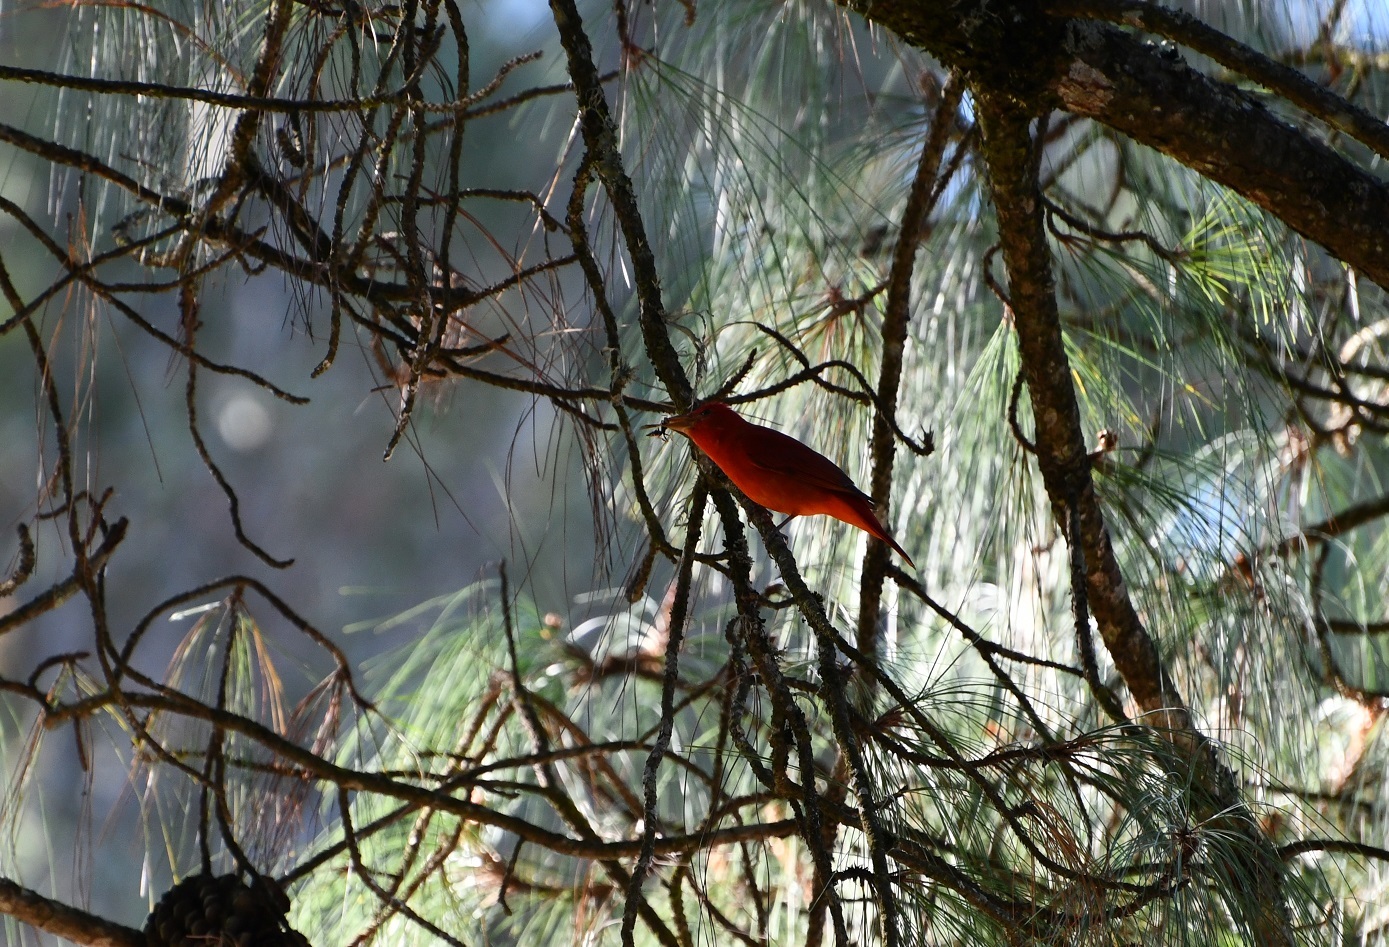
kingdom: Animalia
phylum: Chordata
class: Aves
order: Passeriformes
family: Cardinalidae
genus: Piranga
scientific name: Piranga rubra
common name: Summer tanager
